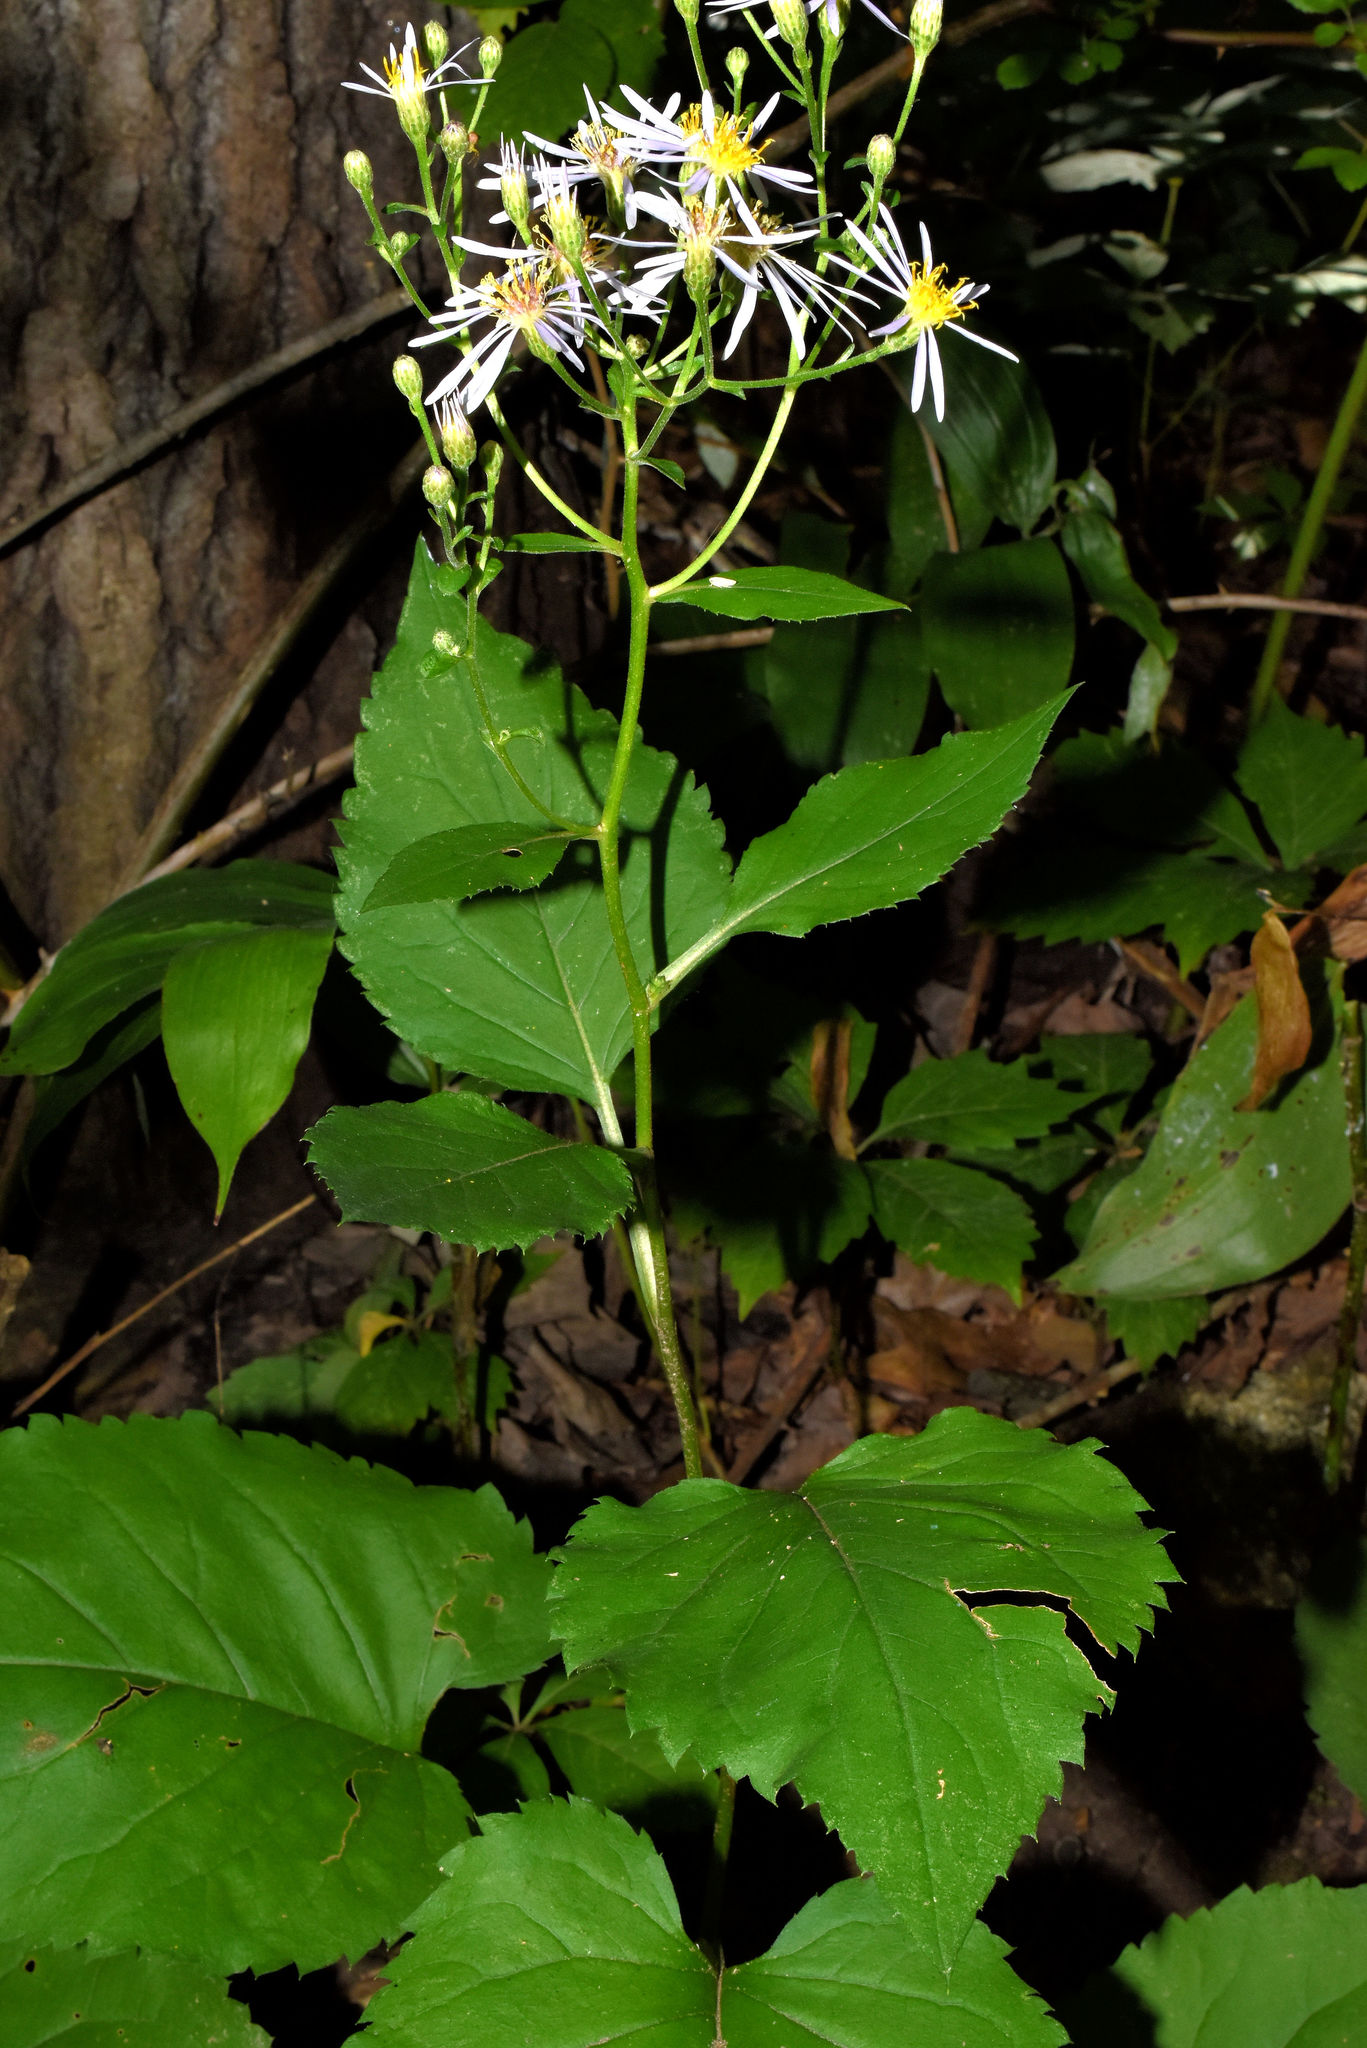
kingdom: Plantae
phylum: Tracheophyta
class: Magnoliopsida
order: Asterales
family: Asteraceae
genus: Eurybia
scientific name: Eurybia macrophylla
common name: Big-leaved aster
